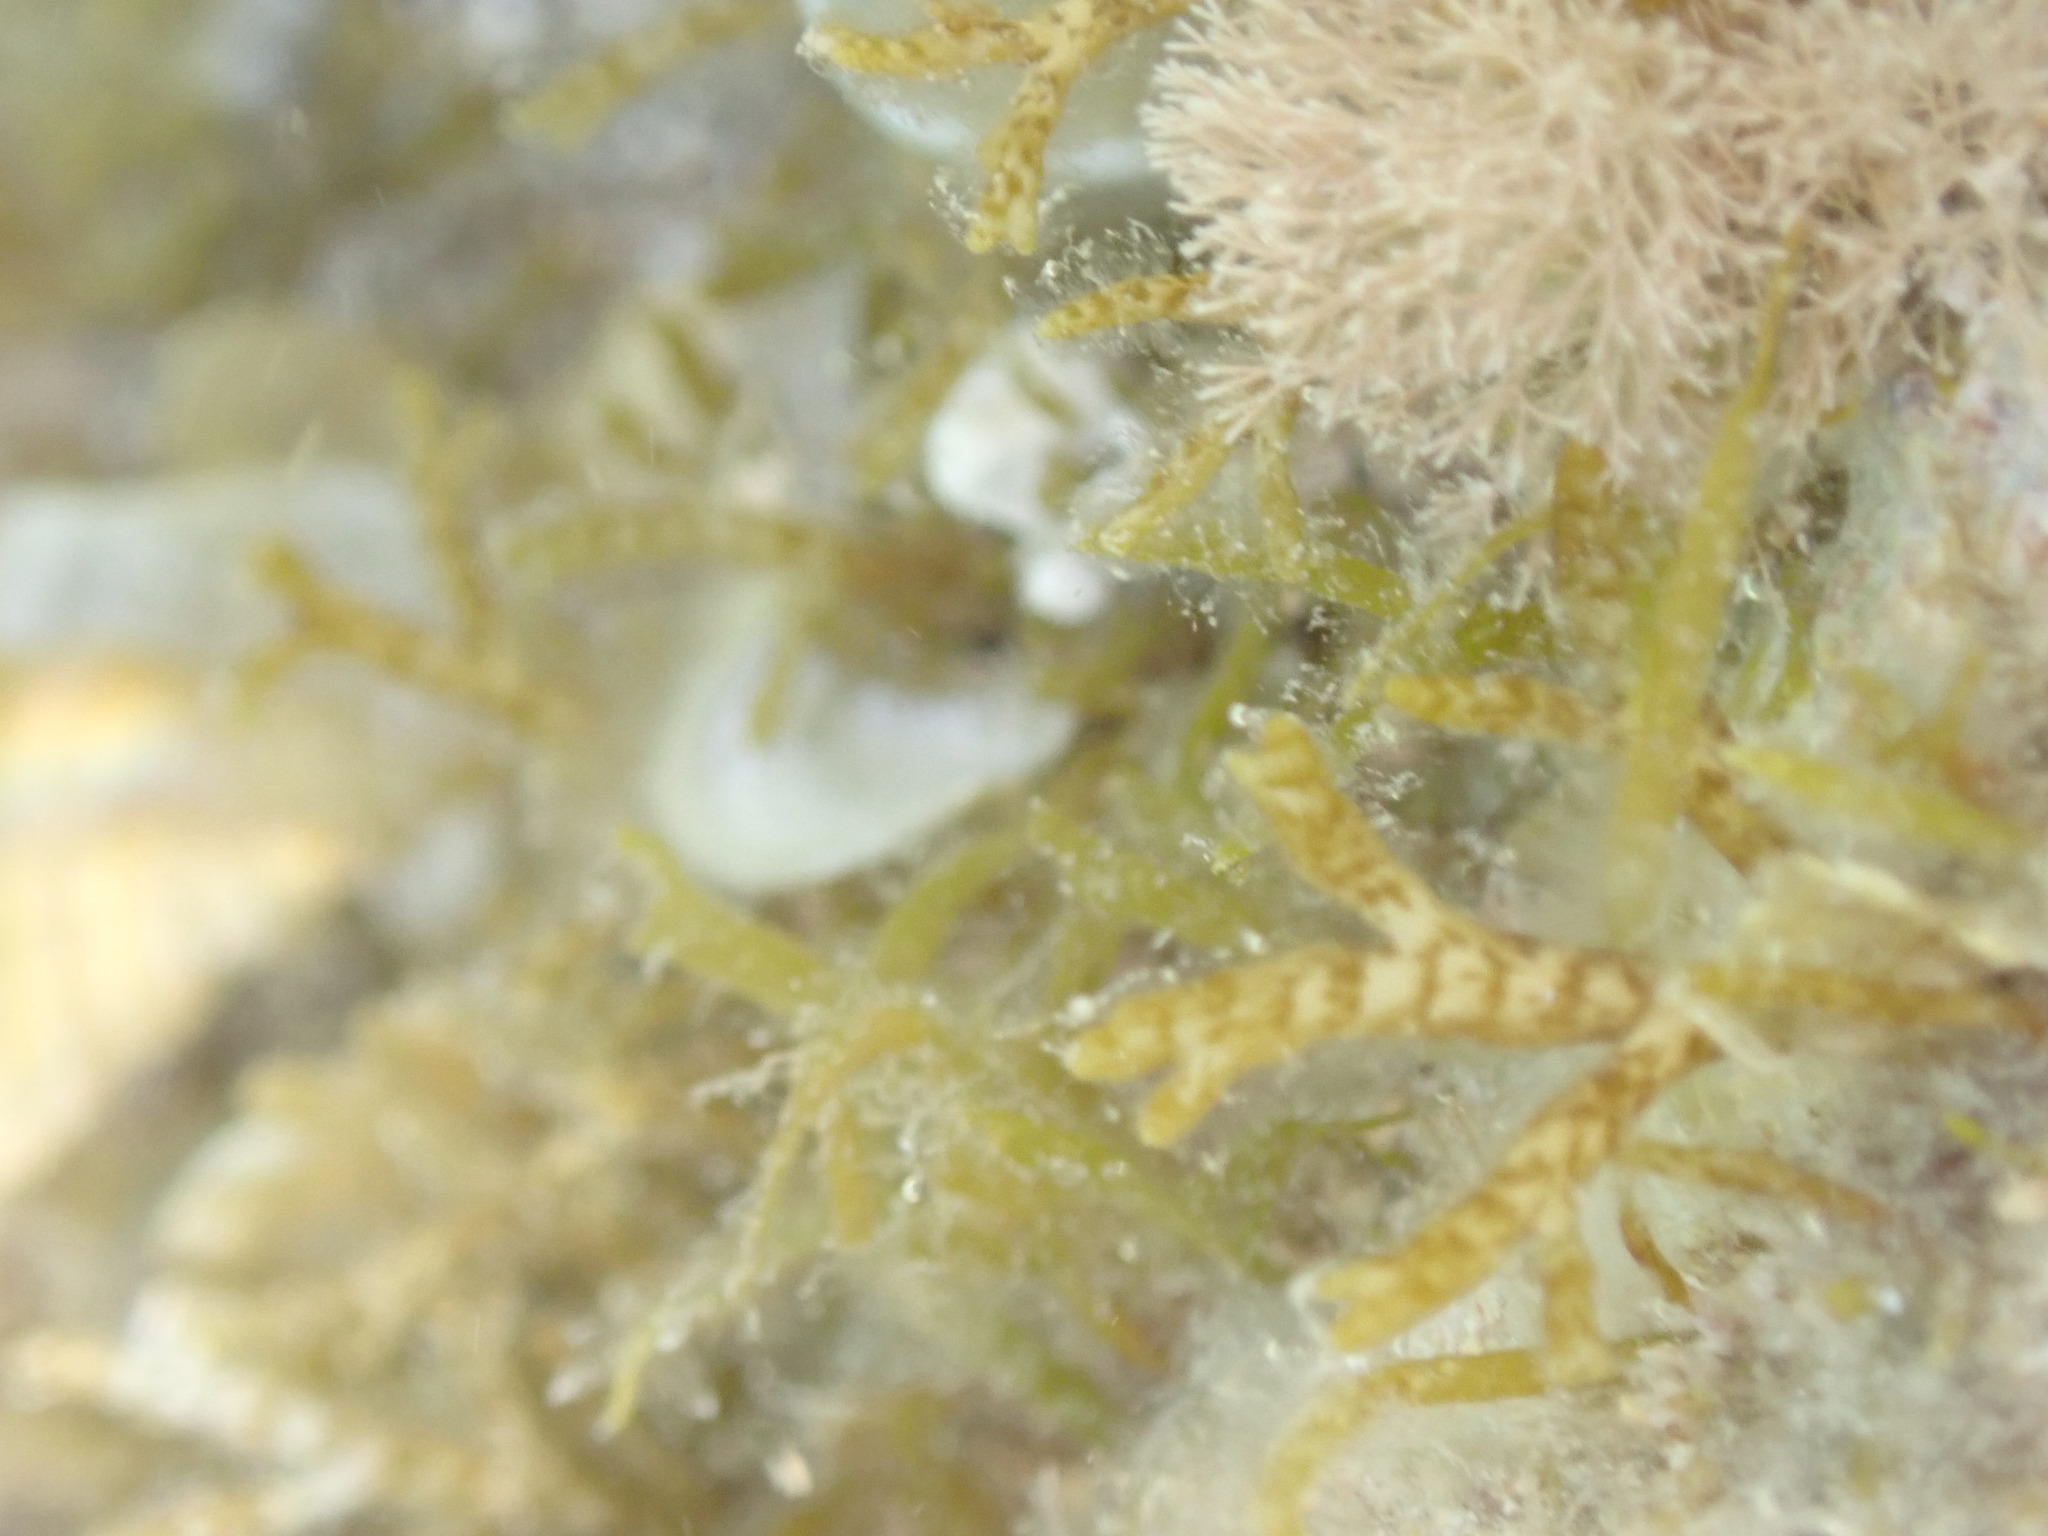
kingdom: Chromista
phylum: Ochrophyta
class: Phaeophyceae
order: Dictyotales
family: Dictyotaceae
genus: Padina
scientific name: Padina
